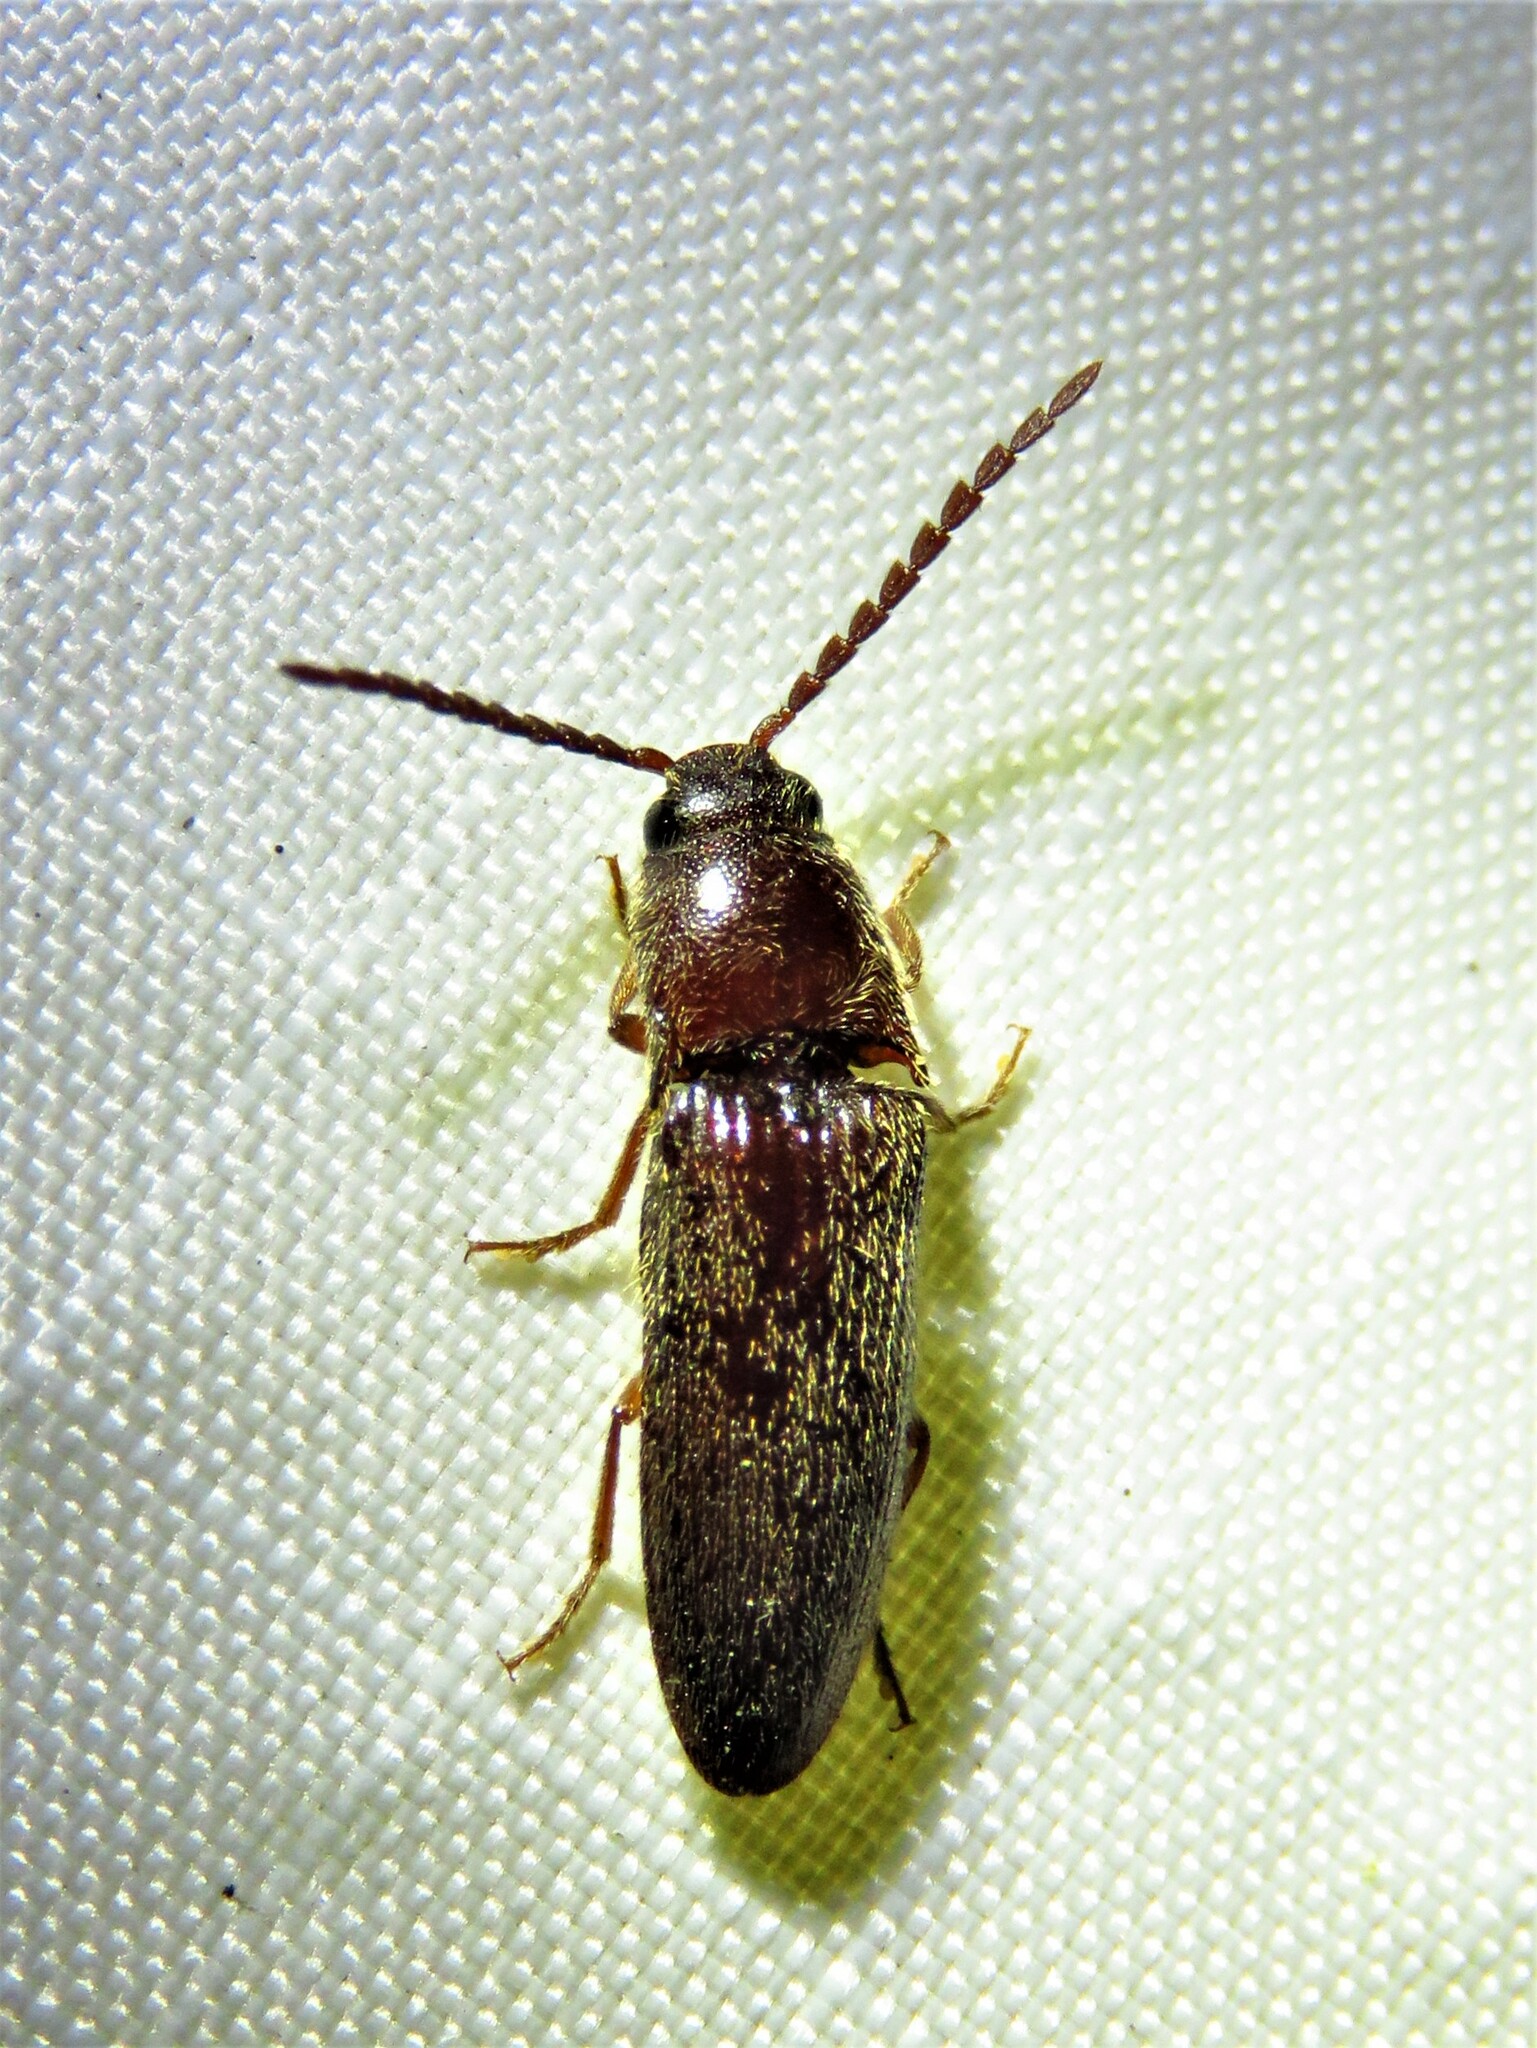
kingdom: Animalia
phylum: Arthropoda
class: Insecta
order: Coleoptera
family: Elateridae
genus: Dipropus
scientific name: Dipropus
